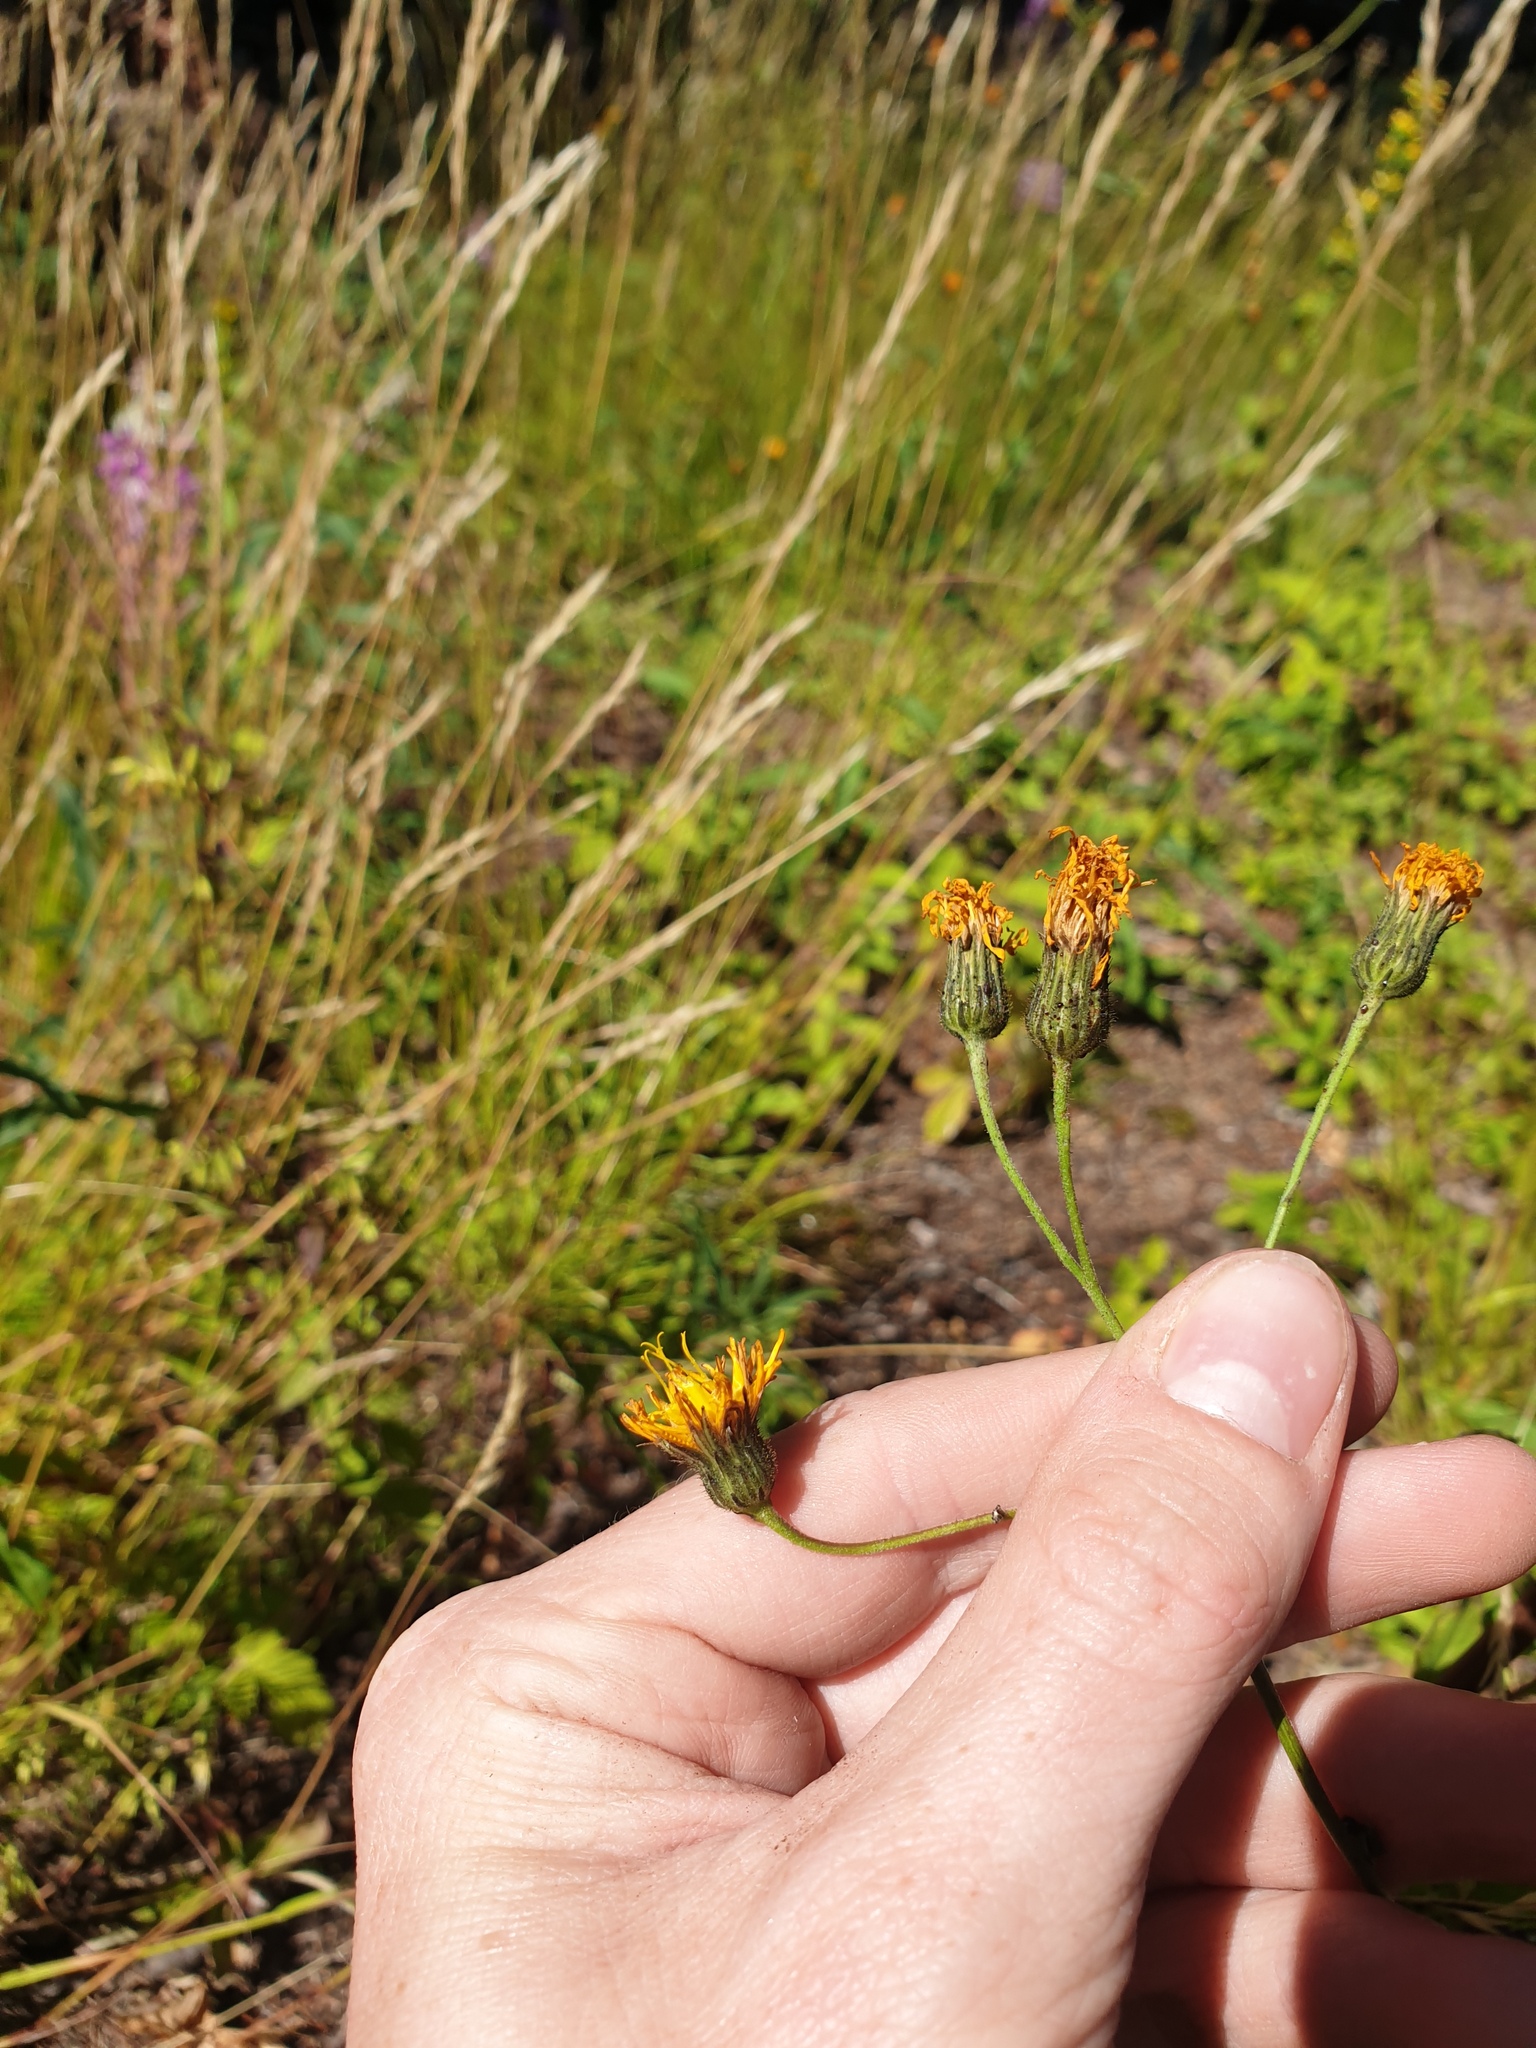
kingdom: Plantae
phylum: Tracheophyta
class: Magnoliopsida
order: Asterales
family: Asteraceae
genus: Hieracium
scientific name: Hieracium umbellatum
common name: Northern hawkweed
